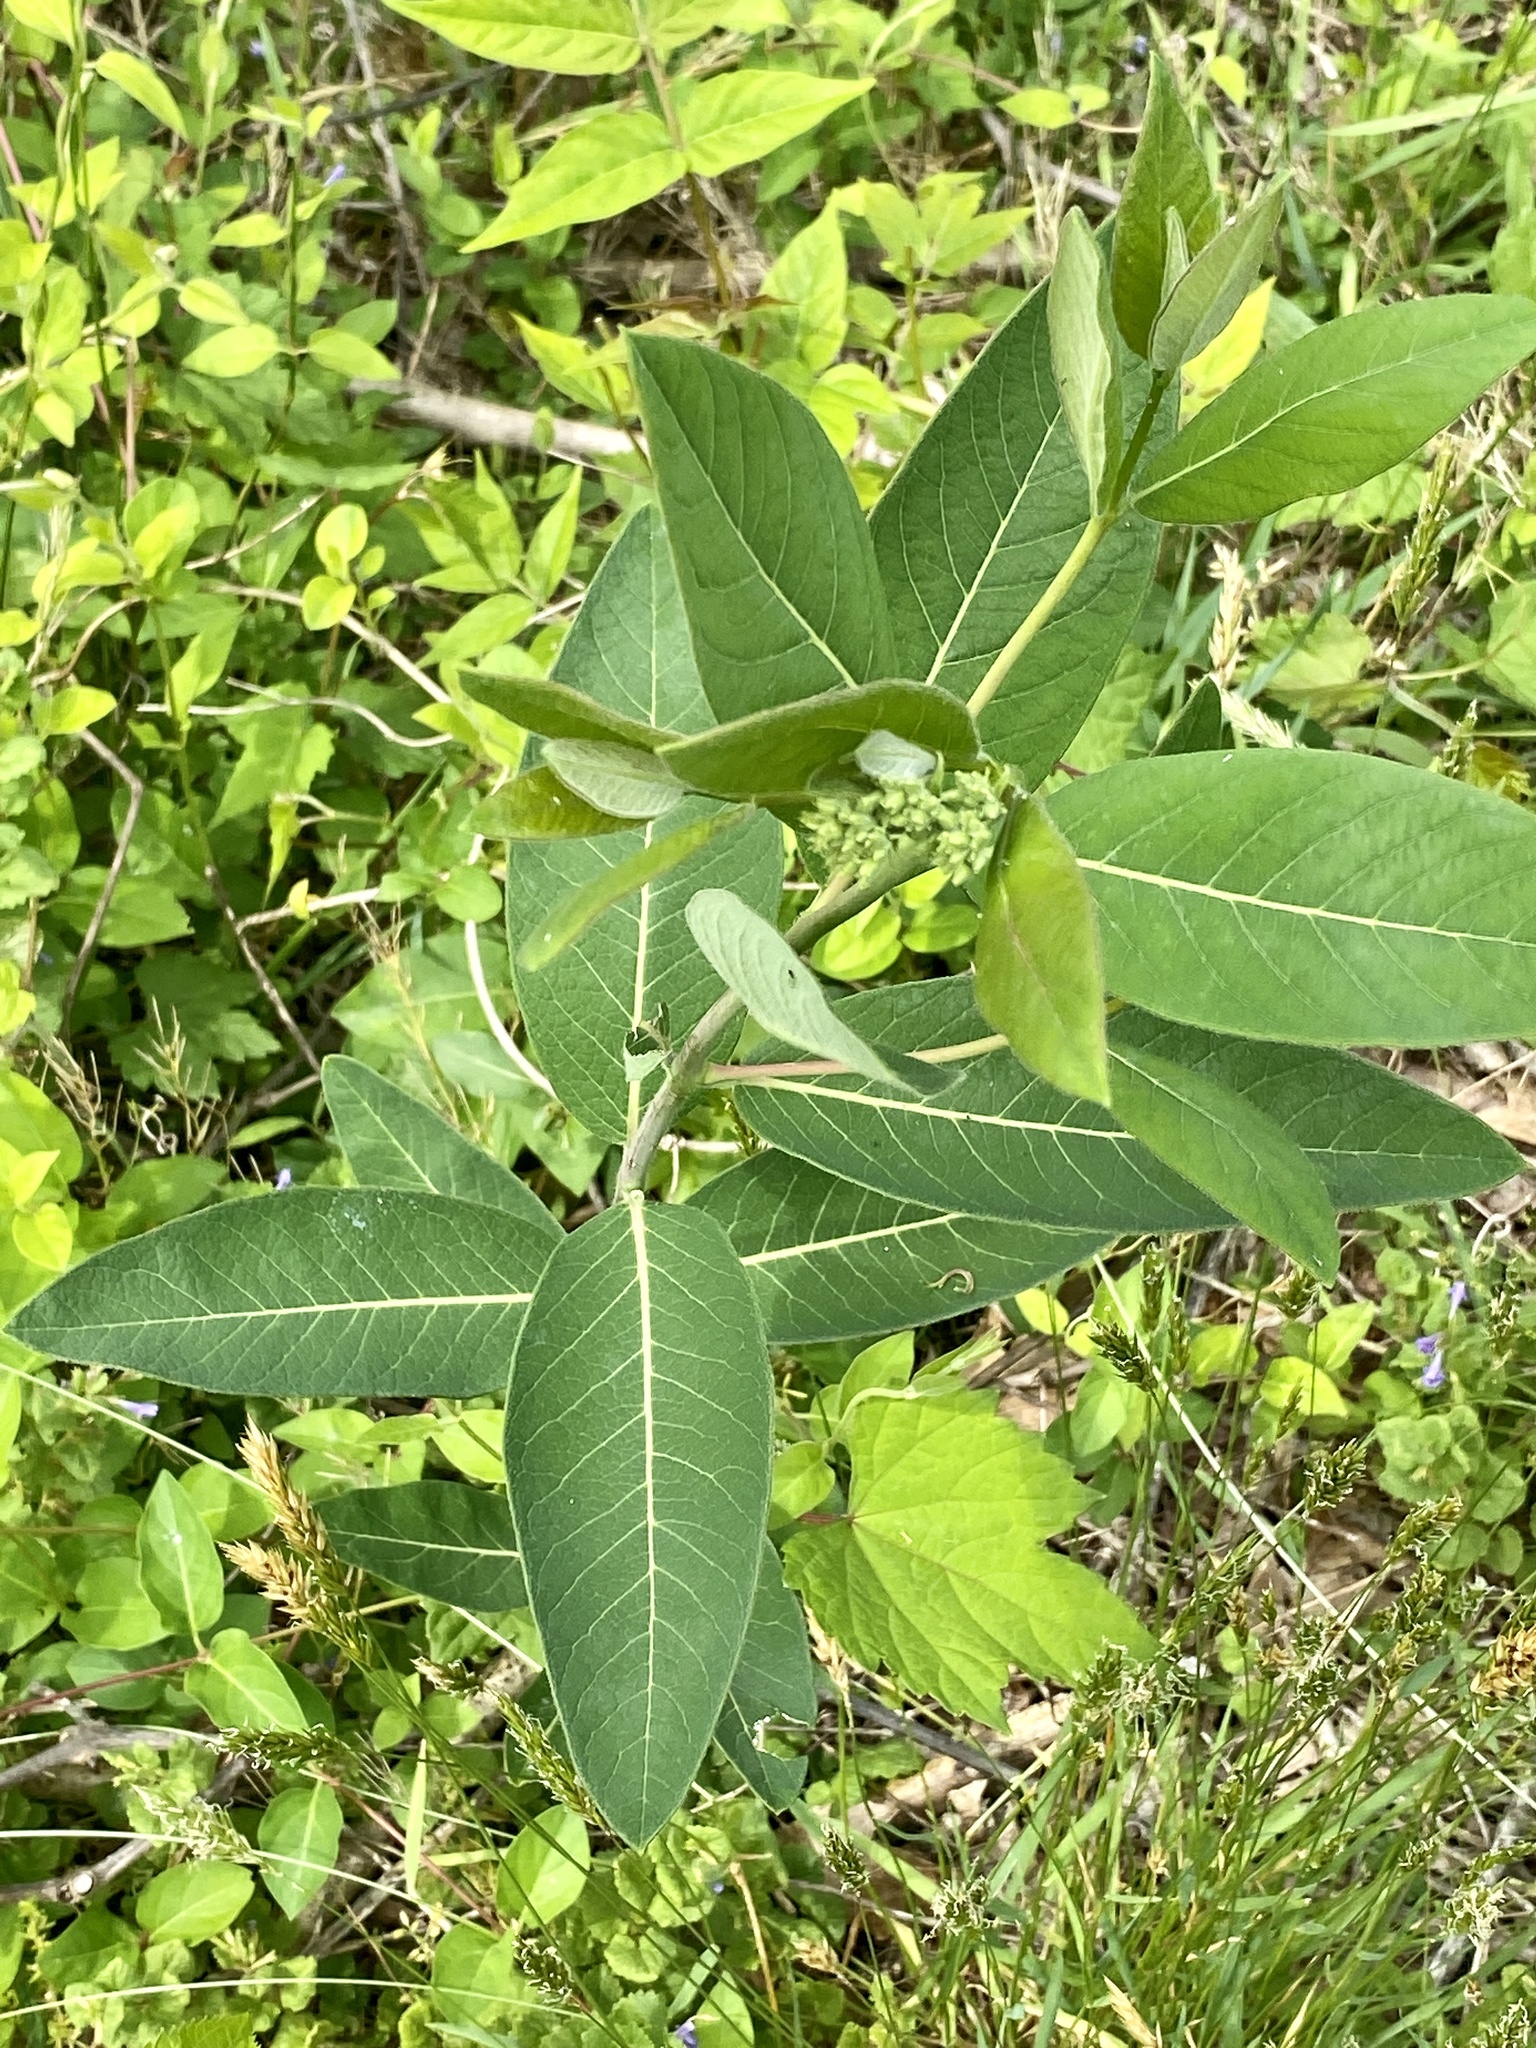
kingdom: Plantae
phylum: Tracheophyta
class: Magnoliopsida
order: Gentianales
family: Apocynaceae
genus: Apocynum
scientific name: Apocynum cannabinum
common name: Hemp dogbane
